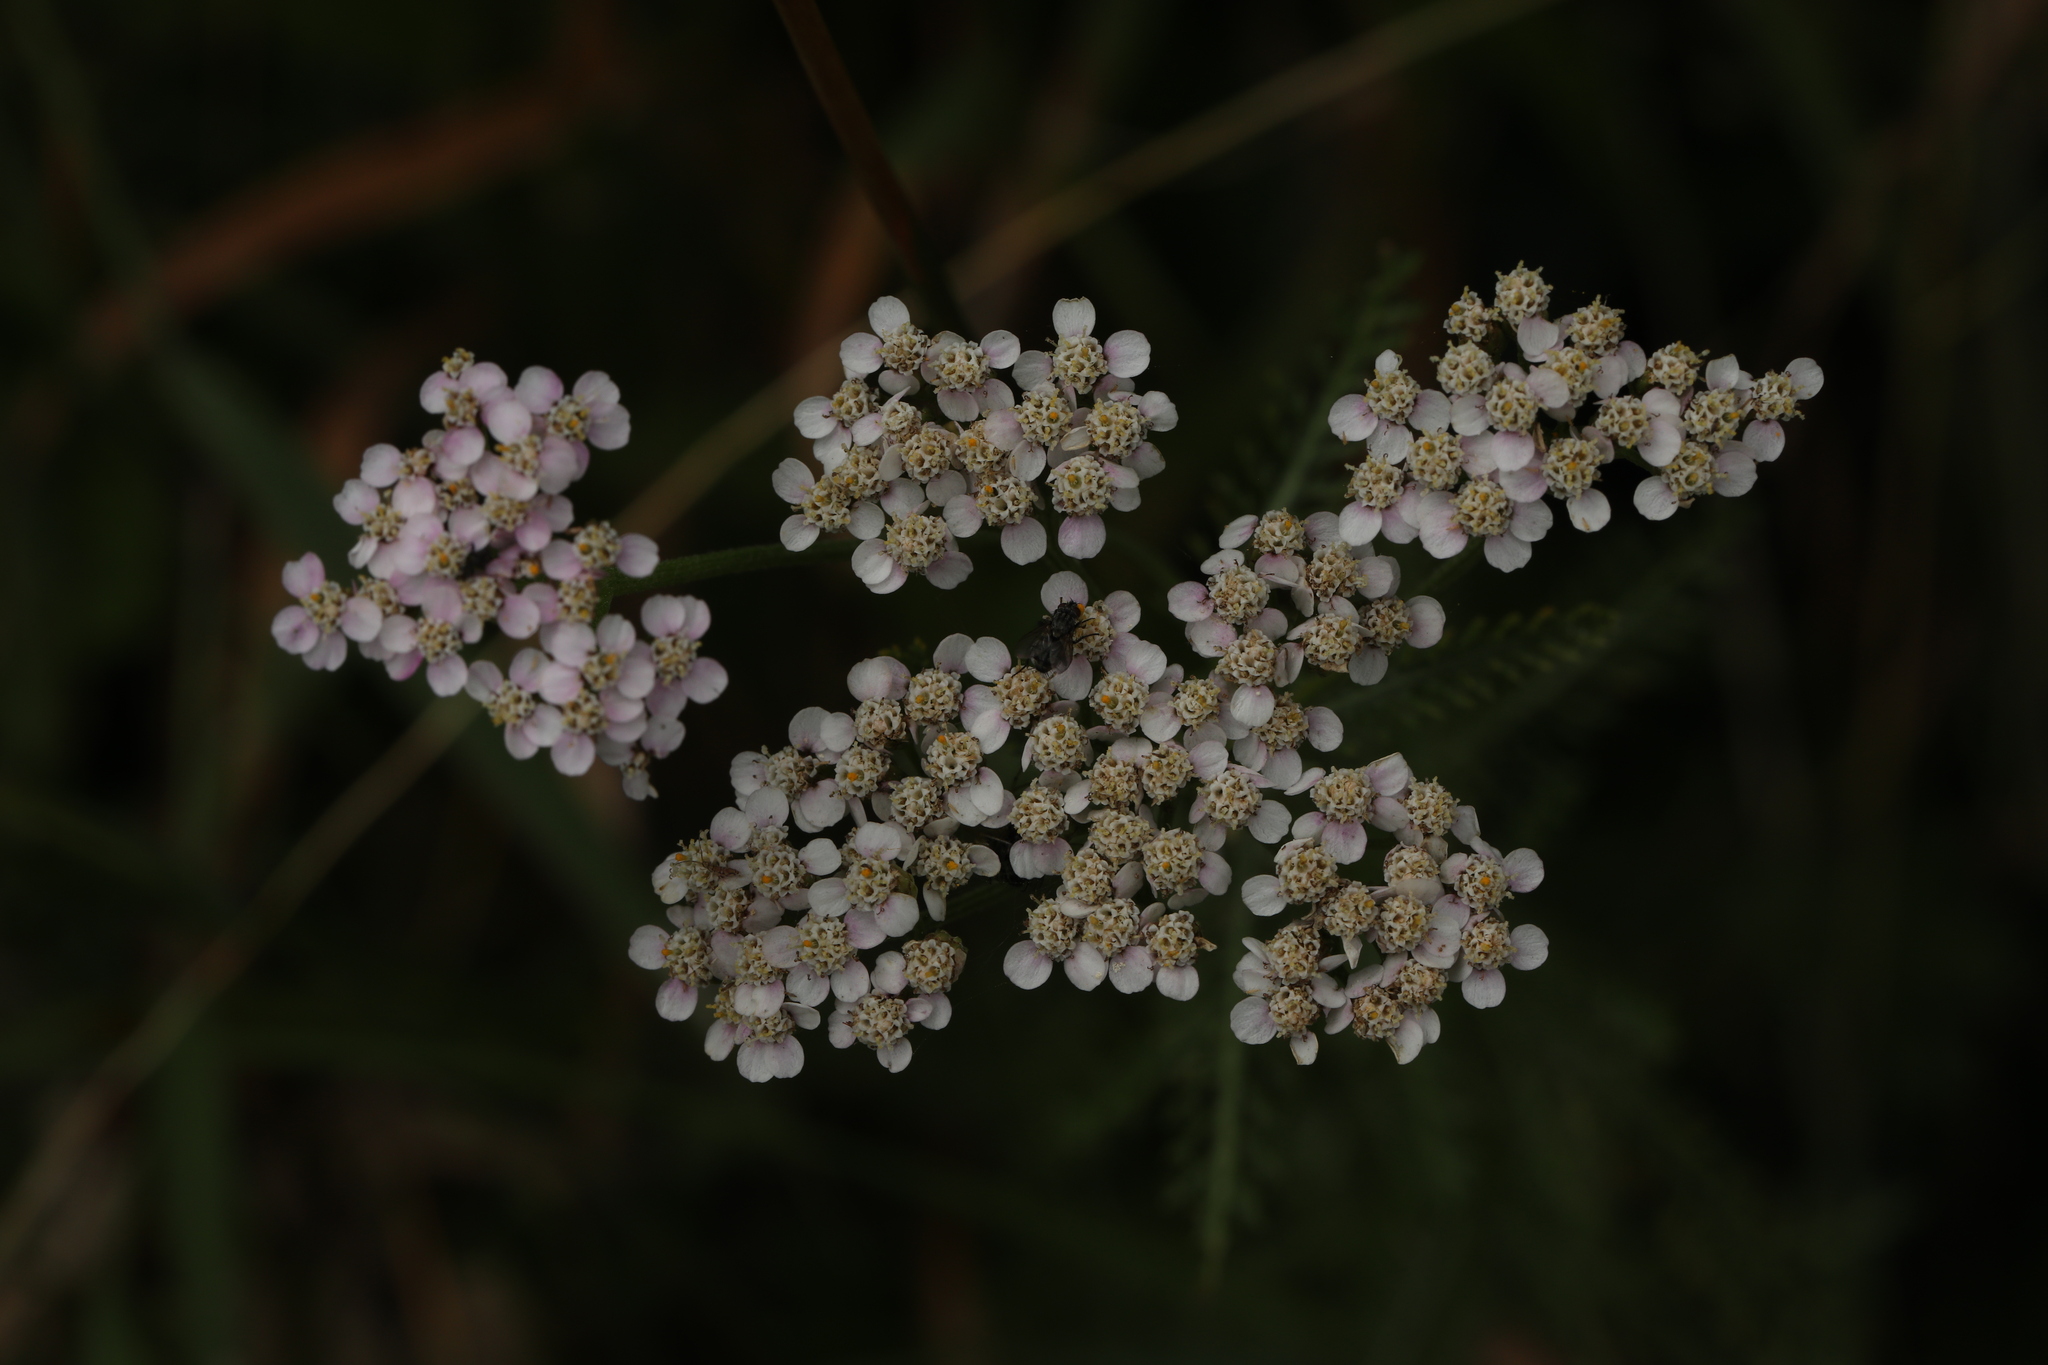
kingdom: Plantae
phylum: Tracheophyta
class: Magnoliopsida
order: Asterales
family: Asteraceae
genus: Achillea
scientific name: Achillea millefolium
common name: Yarrow
